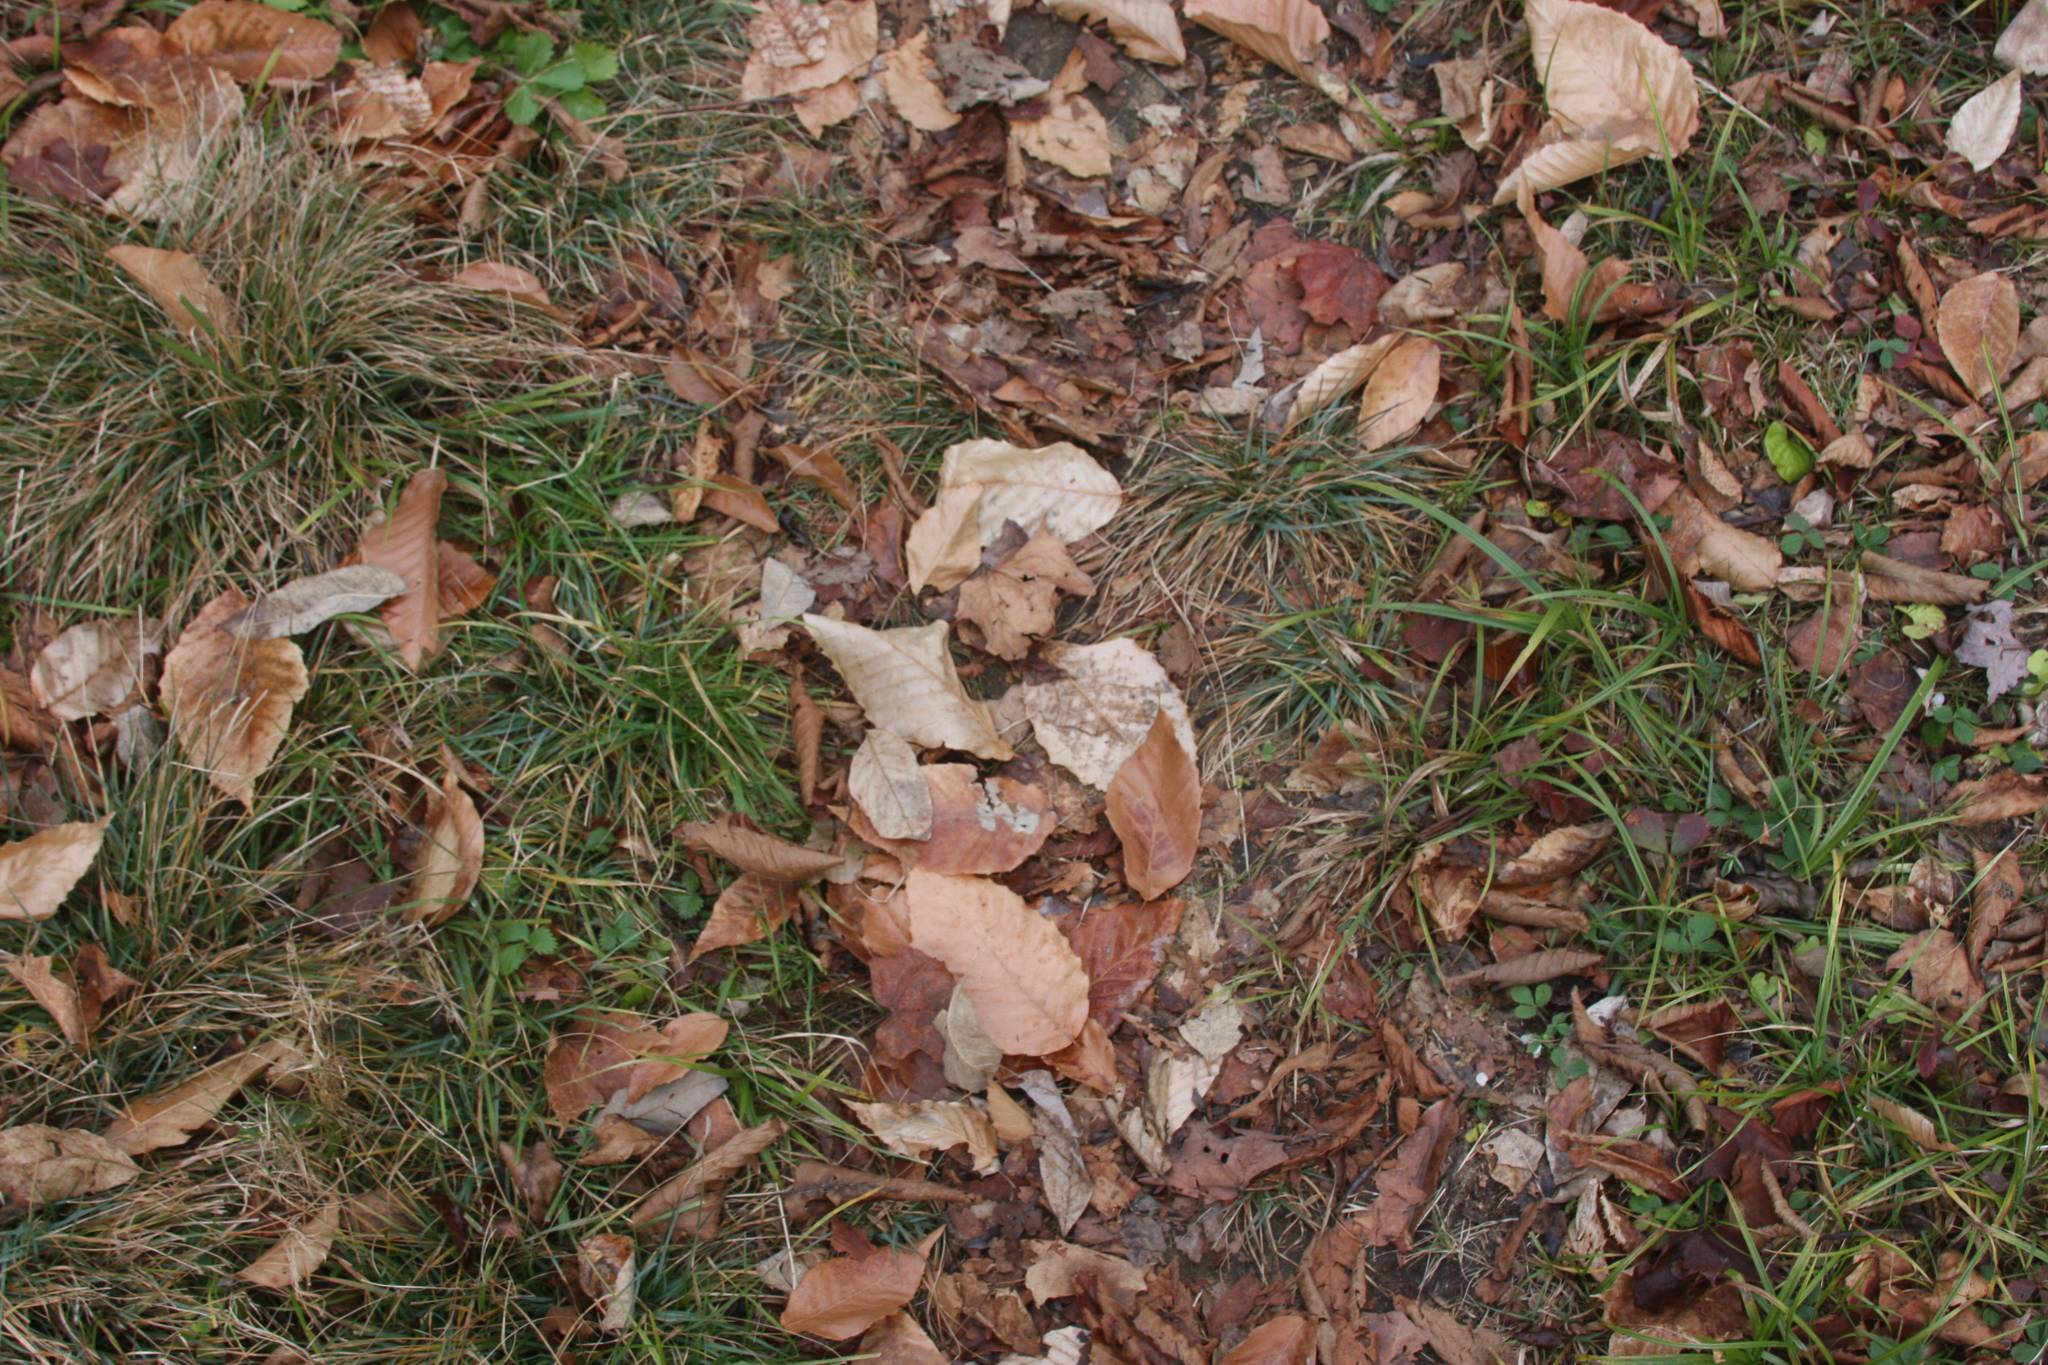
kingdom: Plantae
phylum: Tracheophyta
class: Magnoliopsida
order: Fagales
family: Fagaceae
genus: Fagus
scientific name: Fagus grandifolia
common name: American beech
